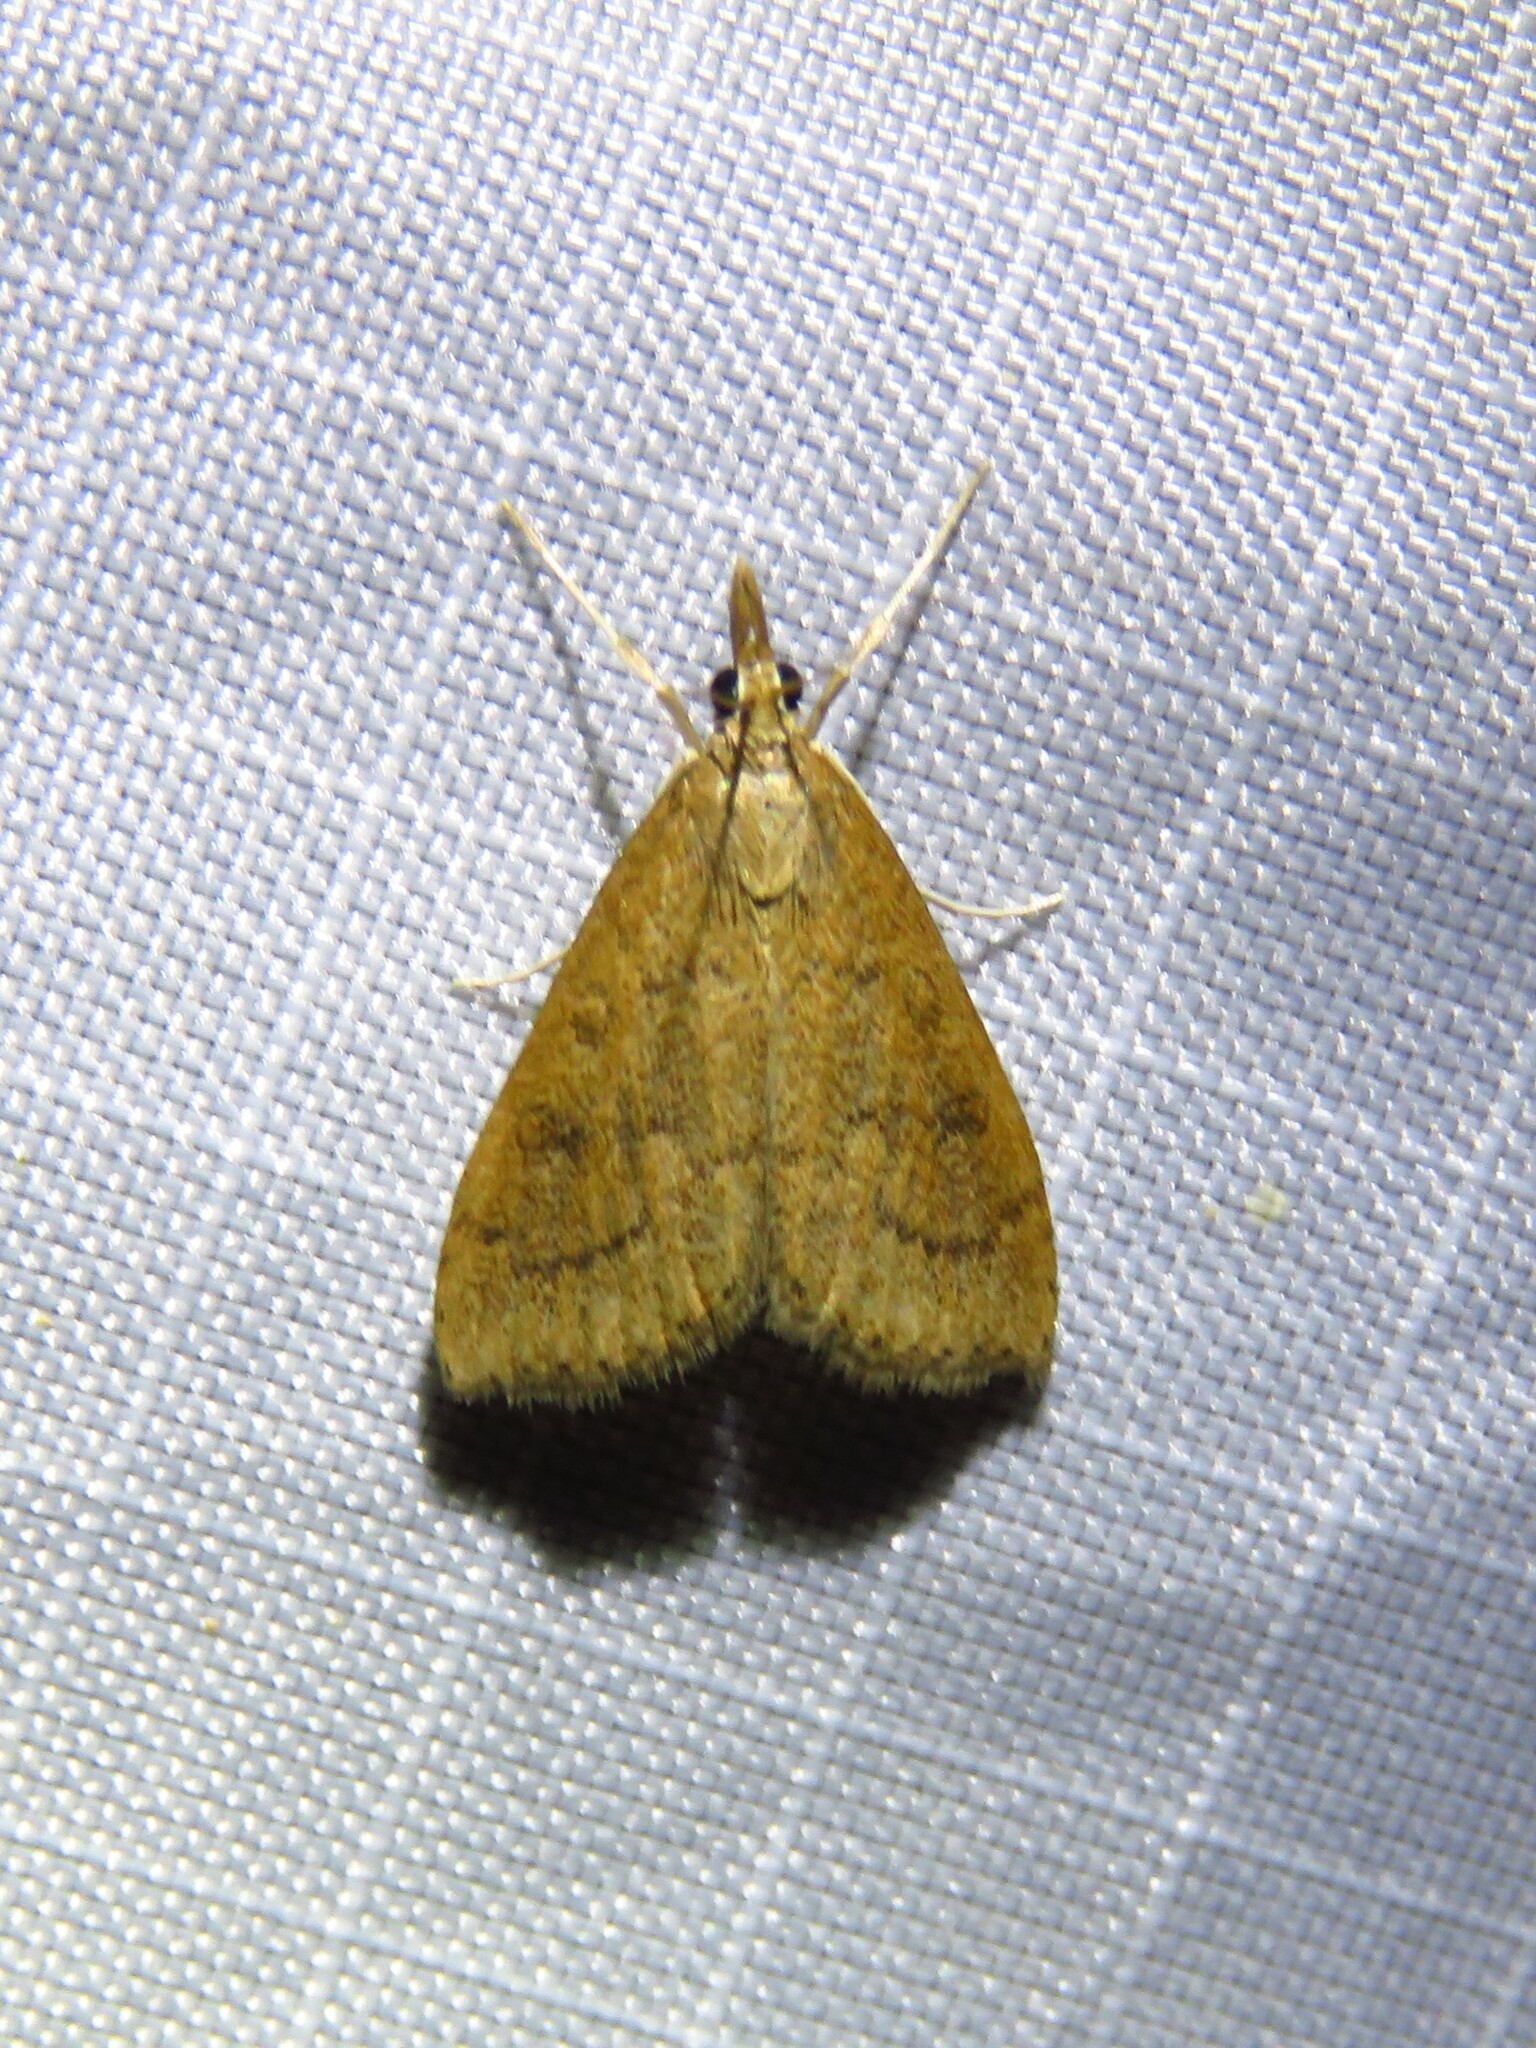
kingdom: Animalia
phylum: Arthropoda
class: Insecta
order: Lepidoptera
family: Crambidae
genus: Udea
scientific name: Udea rubigalis
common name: Celery leaftier moth
